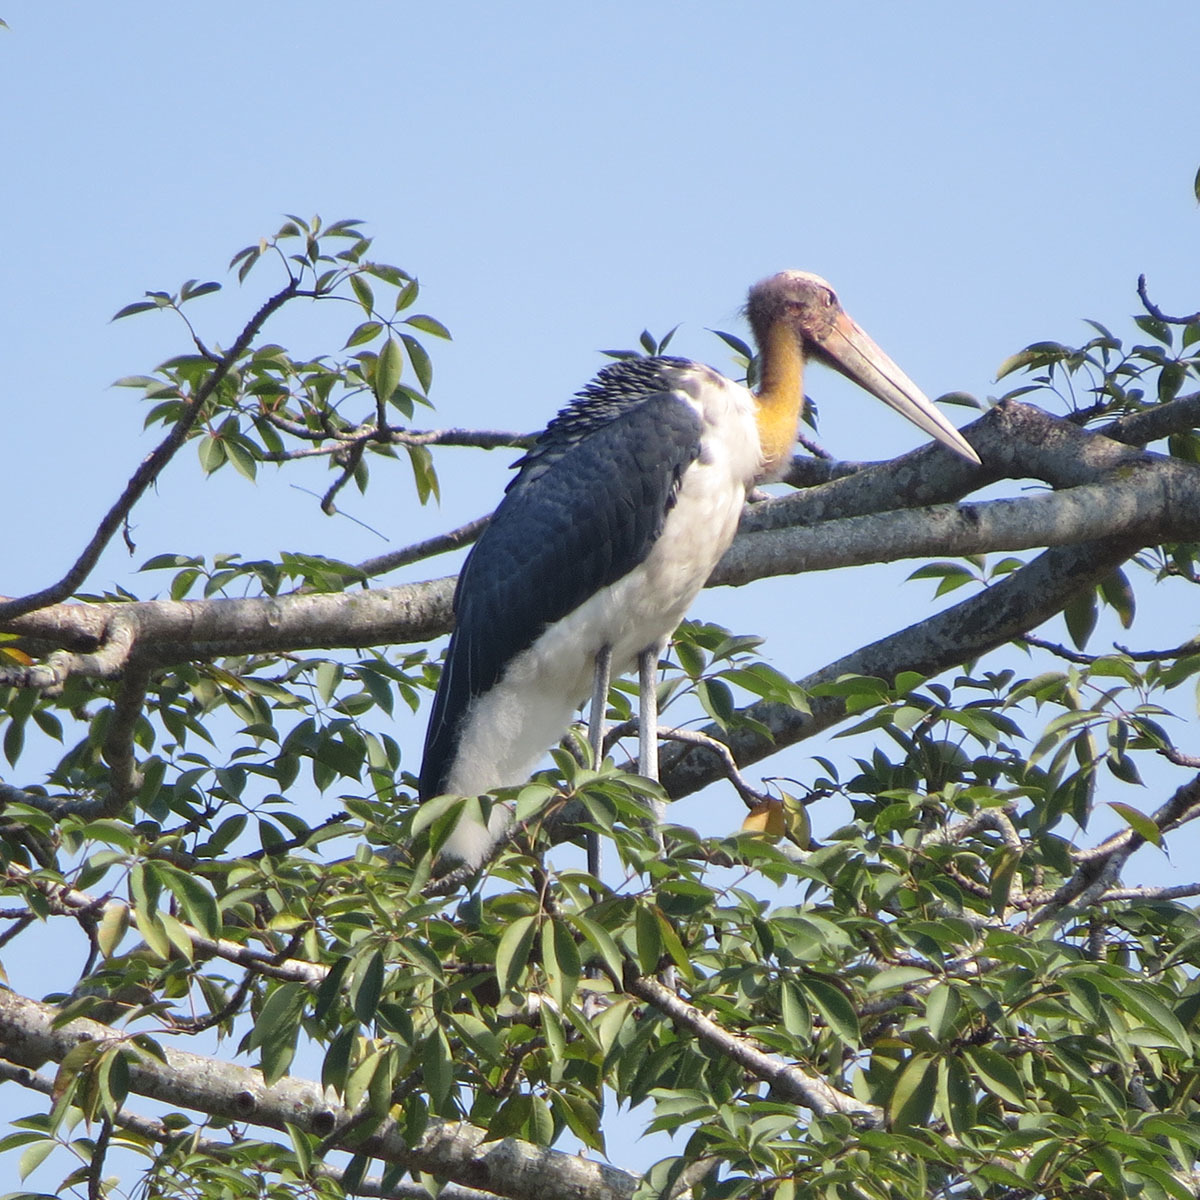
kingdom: Animalia
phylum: Chordata
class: Aves
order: Ciconiiformes
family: Ciconiidae
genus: Leptoptilos
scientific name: Leptoptilos javanicus
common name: Lesser adjutant
